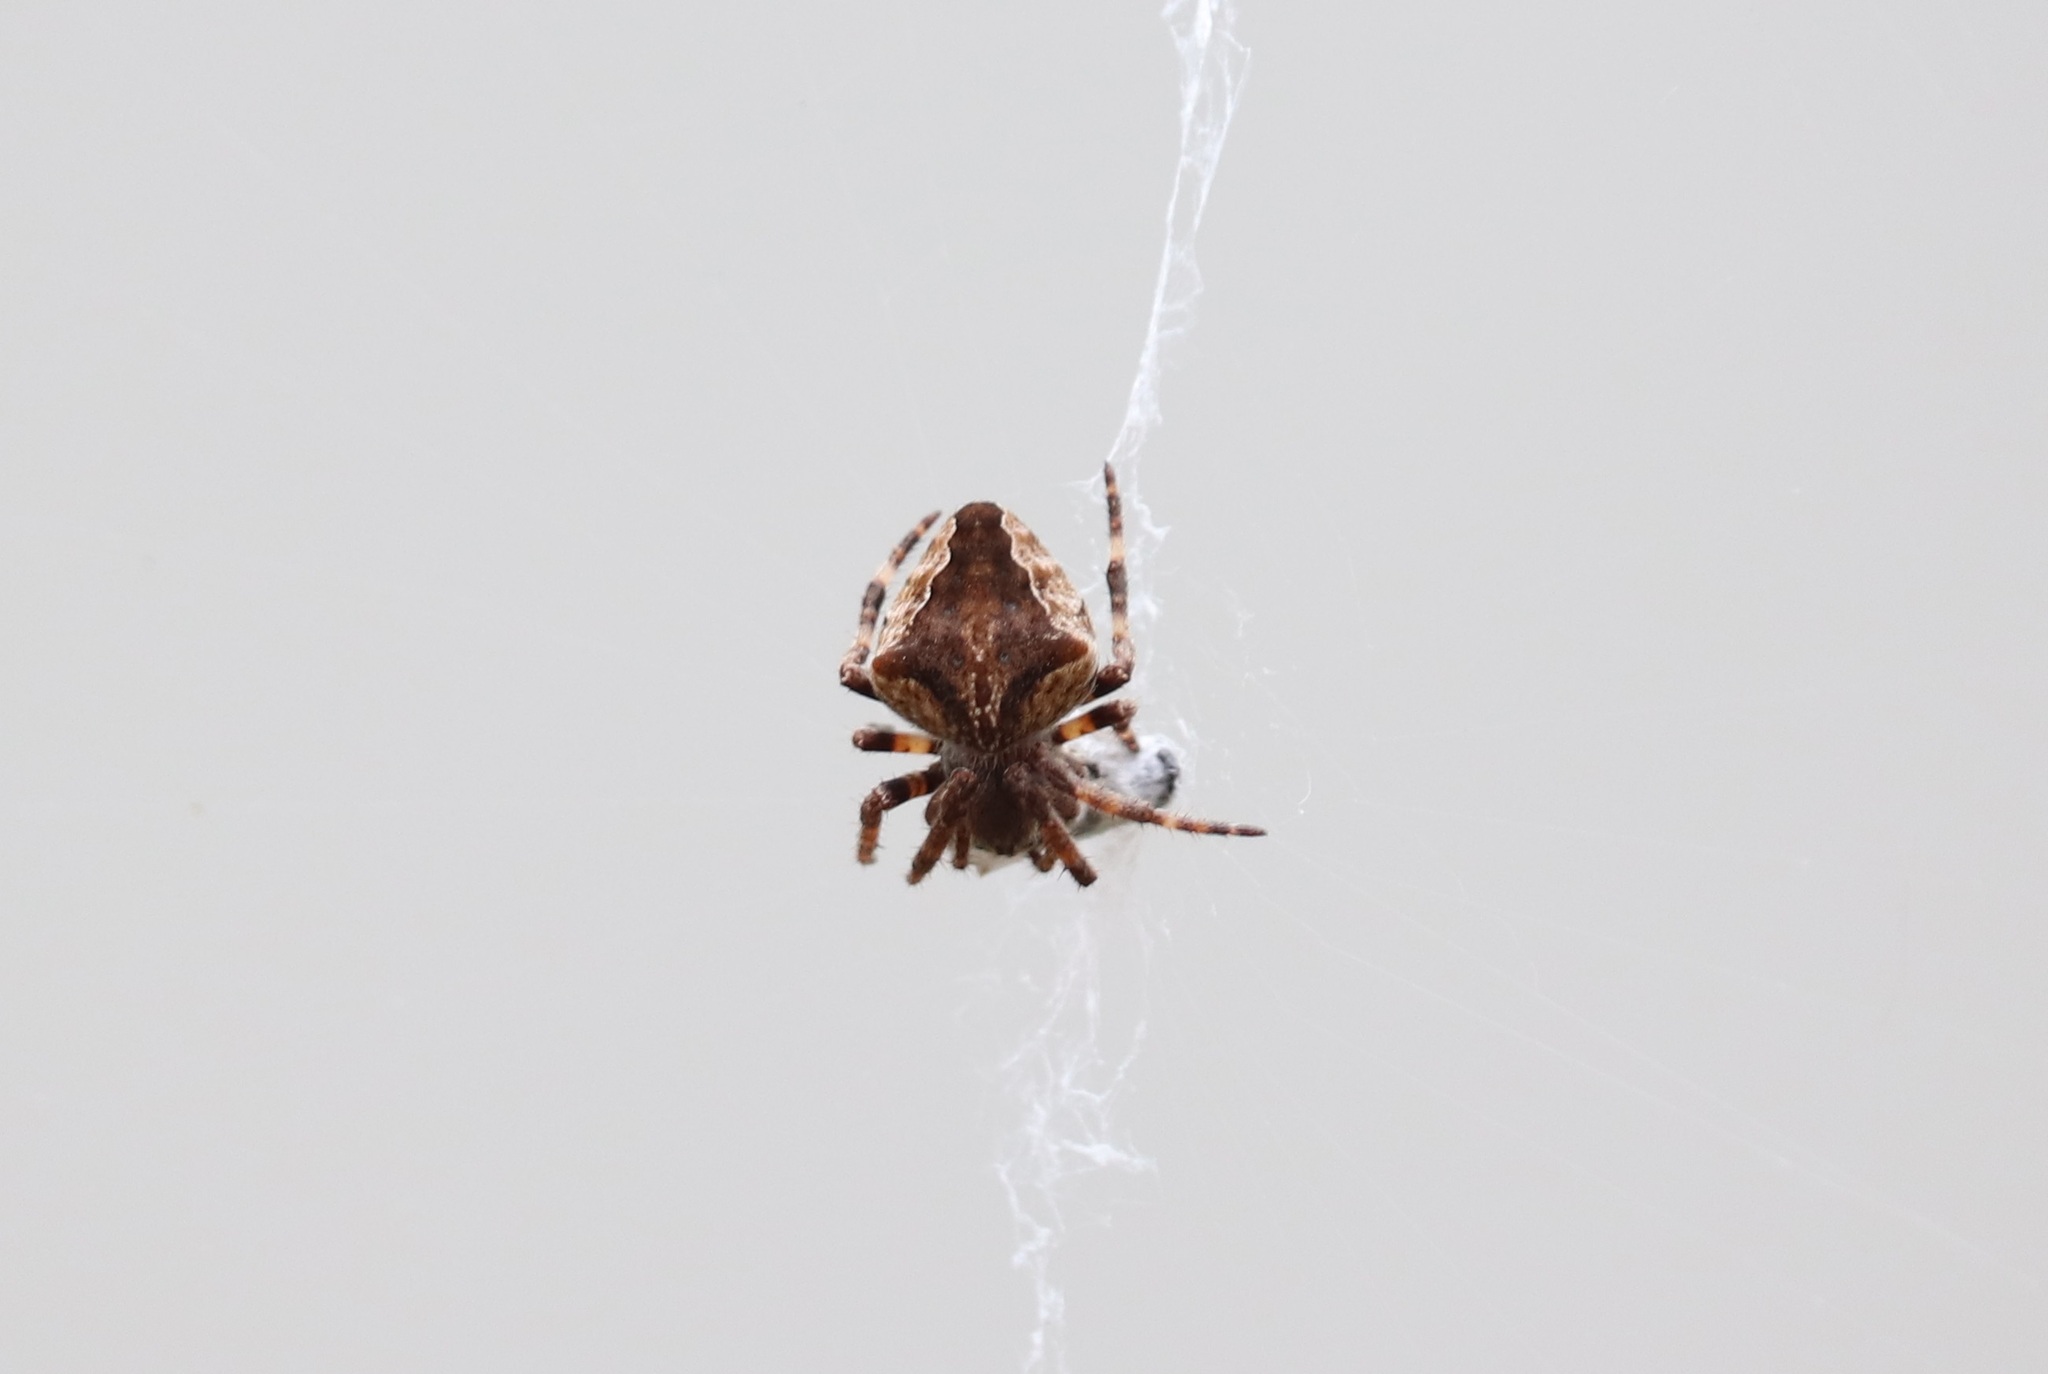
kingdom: Animalia
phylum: Arthropoda
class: Arachnida
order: Araneae
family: Araneidae
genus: Araneus
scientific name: Araneus uyemurai
